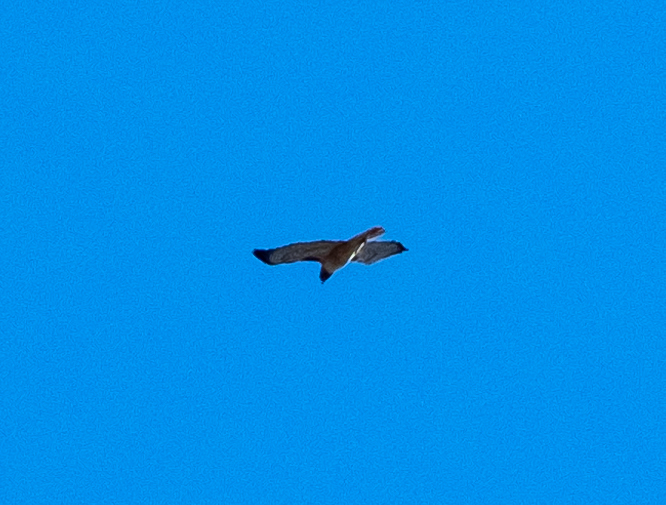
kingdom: Animalia
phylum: Chordata
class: Aves
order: Accipitriformes
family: Accipitridae
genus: Buteo
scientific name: Buteo jamaicensis
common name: Red-tailed hawk
